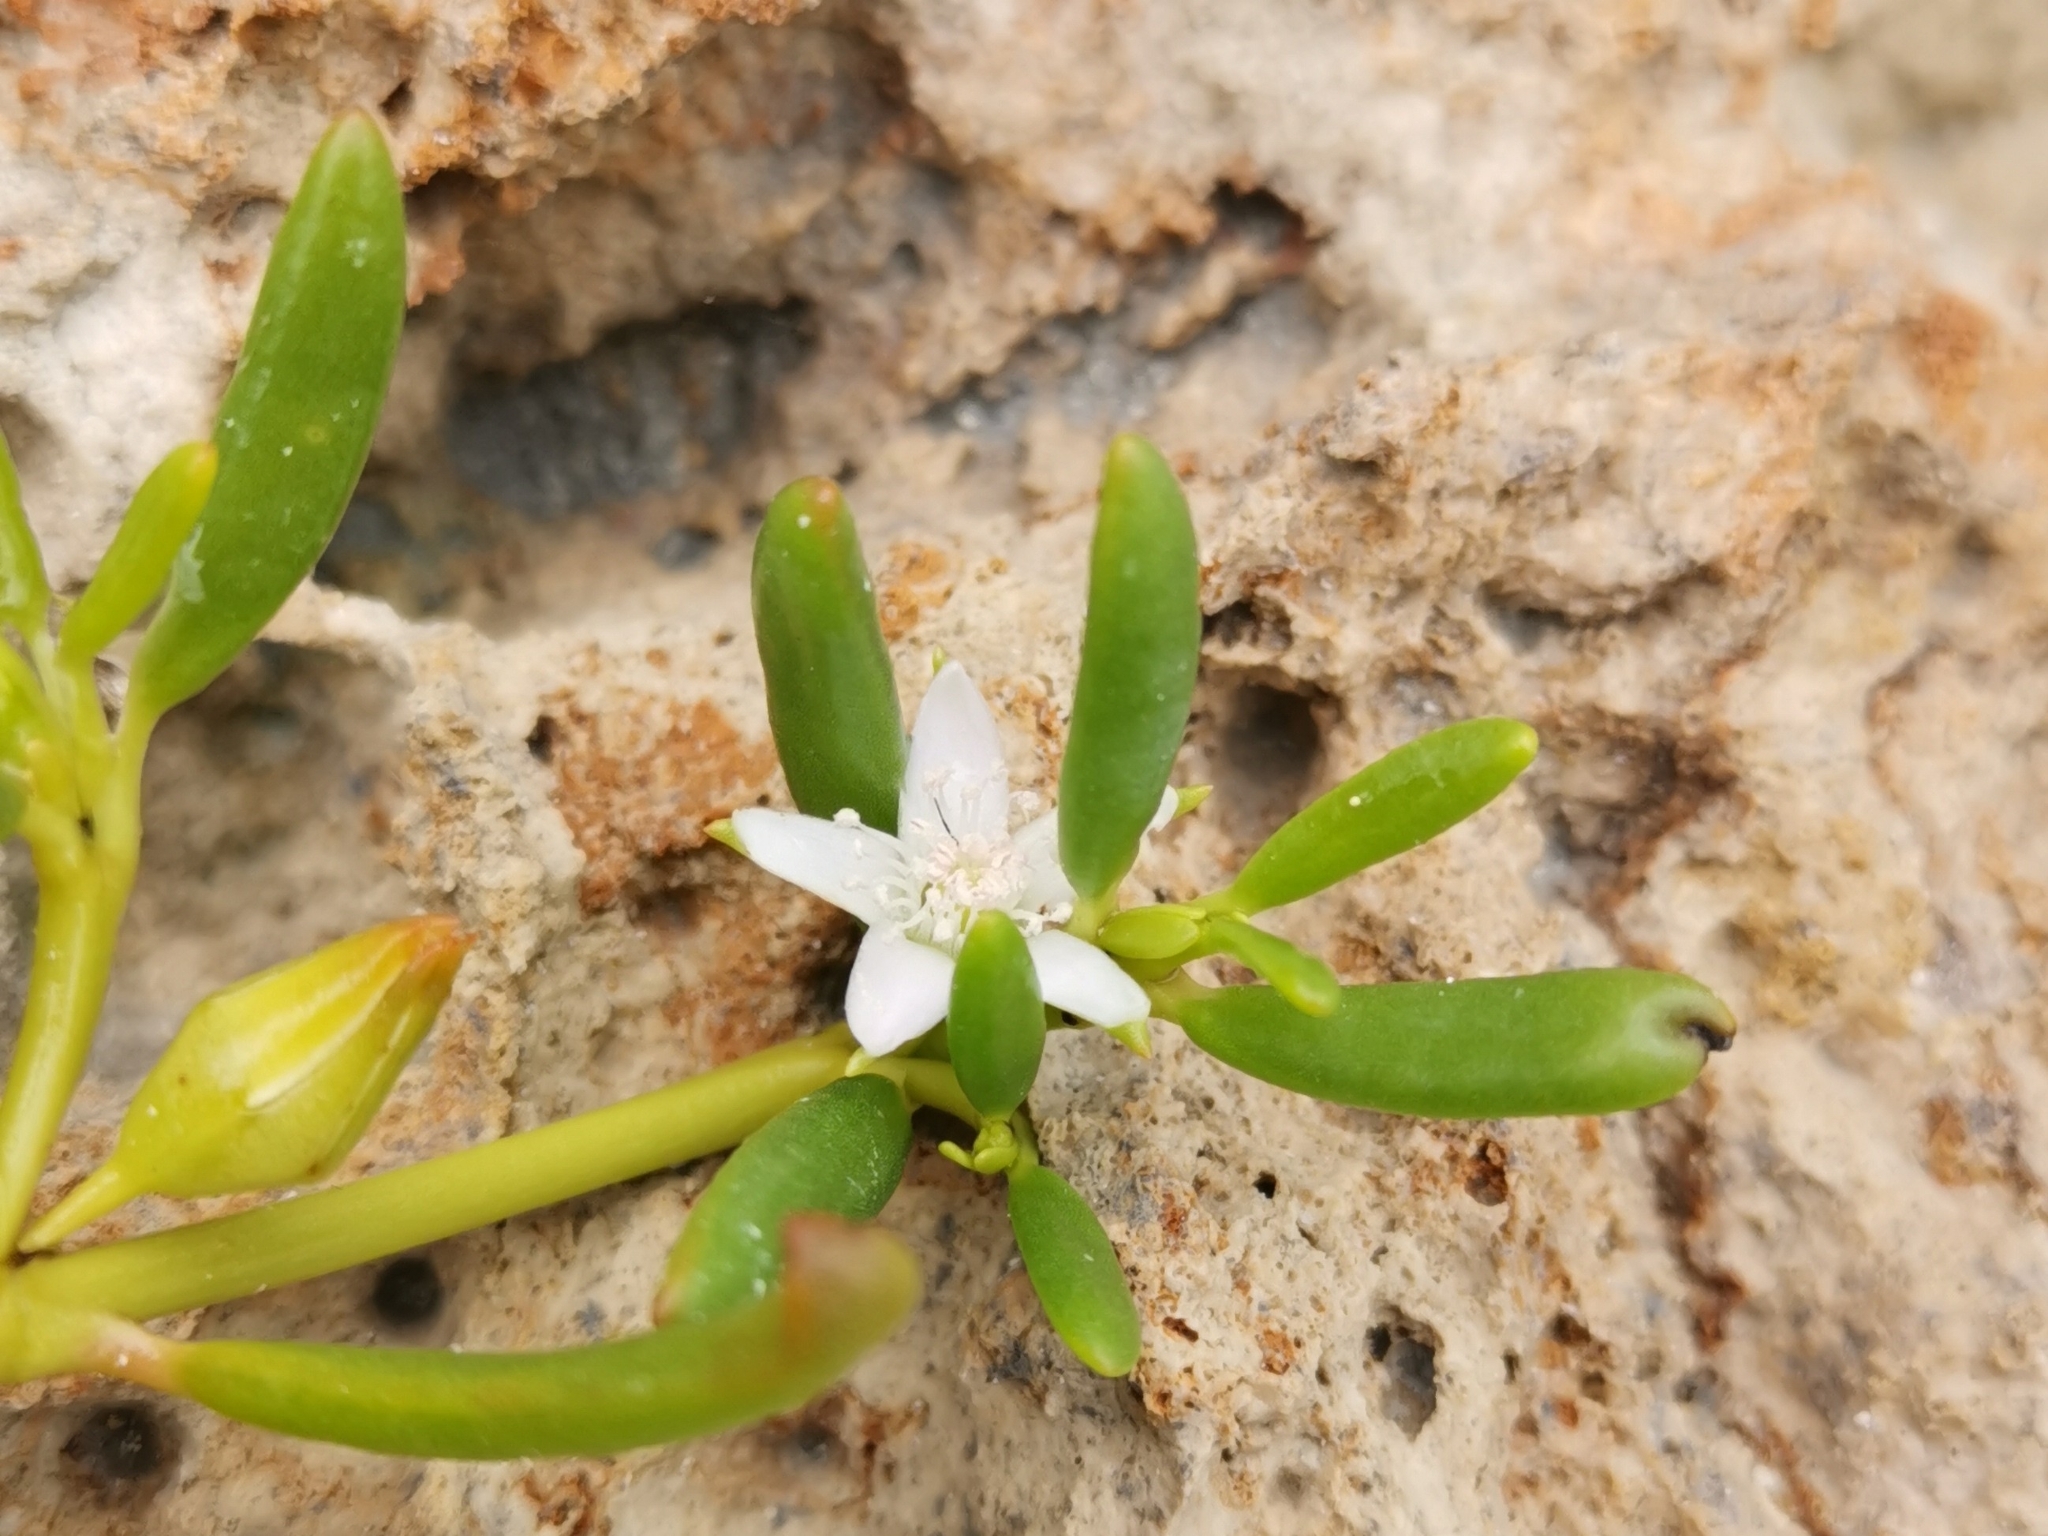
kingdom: Plantae
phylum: Tracheophyta
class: Magnoliopsida
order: Caryophyllales
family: Aizoaceae
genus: Sesuvium
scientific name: Sesuvium portulacastrum
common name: Sea-purslane
